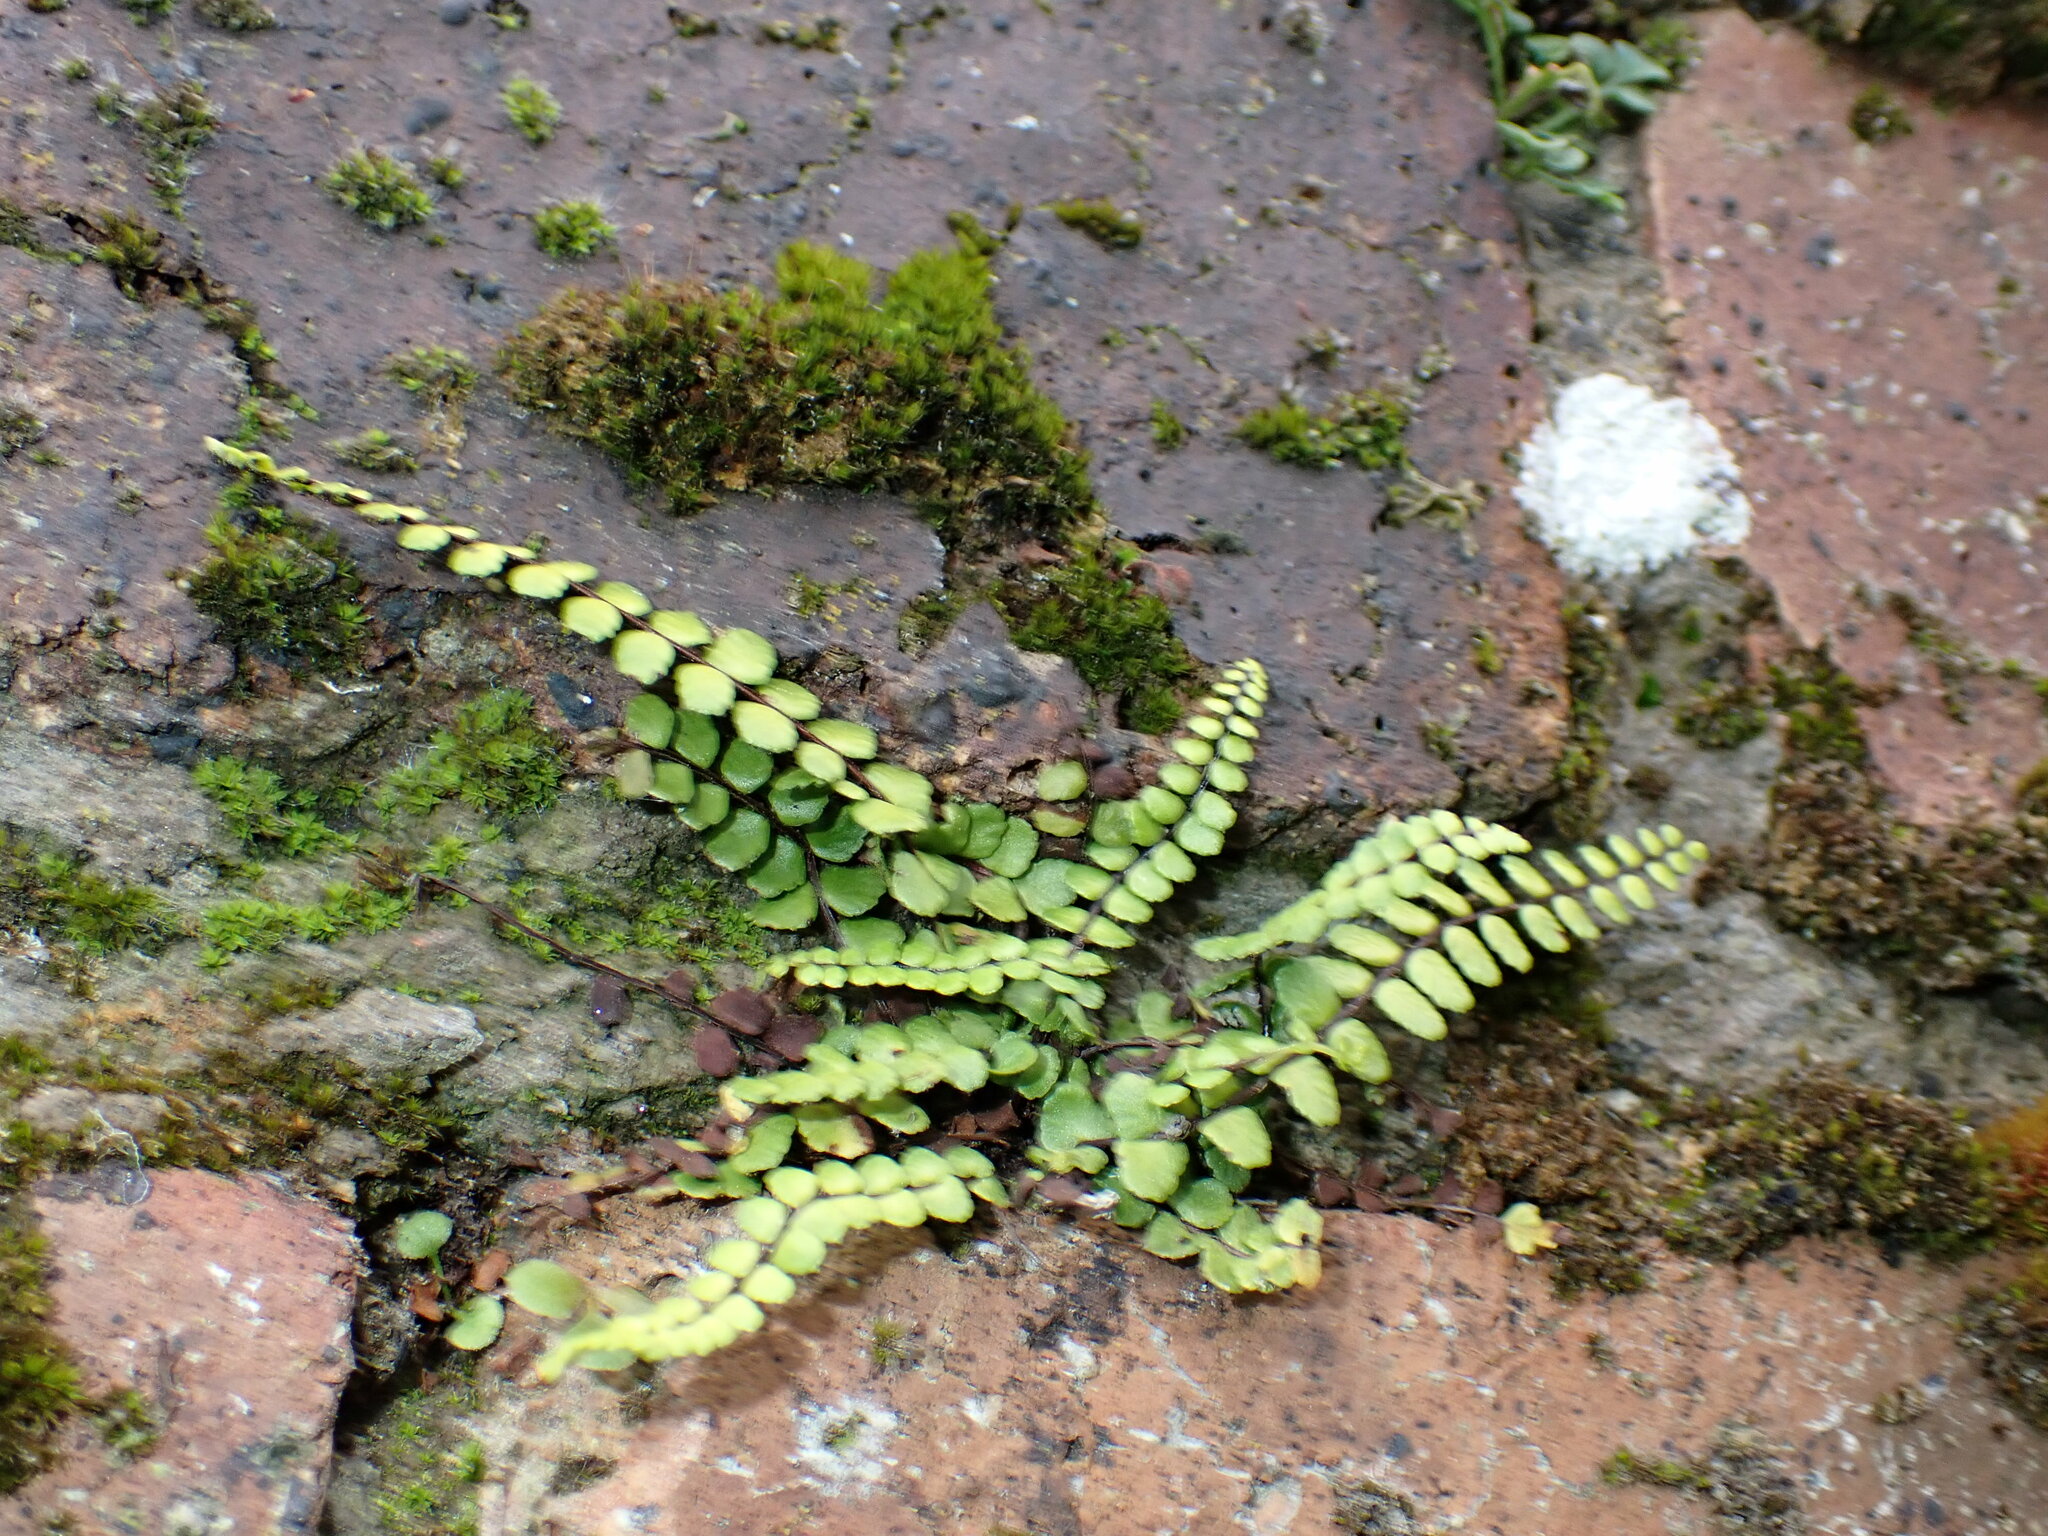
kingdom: Plantae
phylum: Tracheophyta
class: Polypodiopsida
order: Polypodiales
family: Aspleniaceae
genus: Asplenium
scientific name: Asplenium trichomanes
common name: Maidenhair spleenwort
